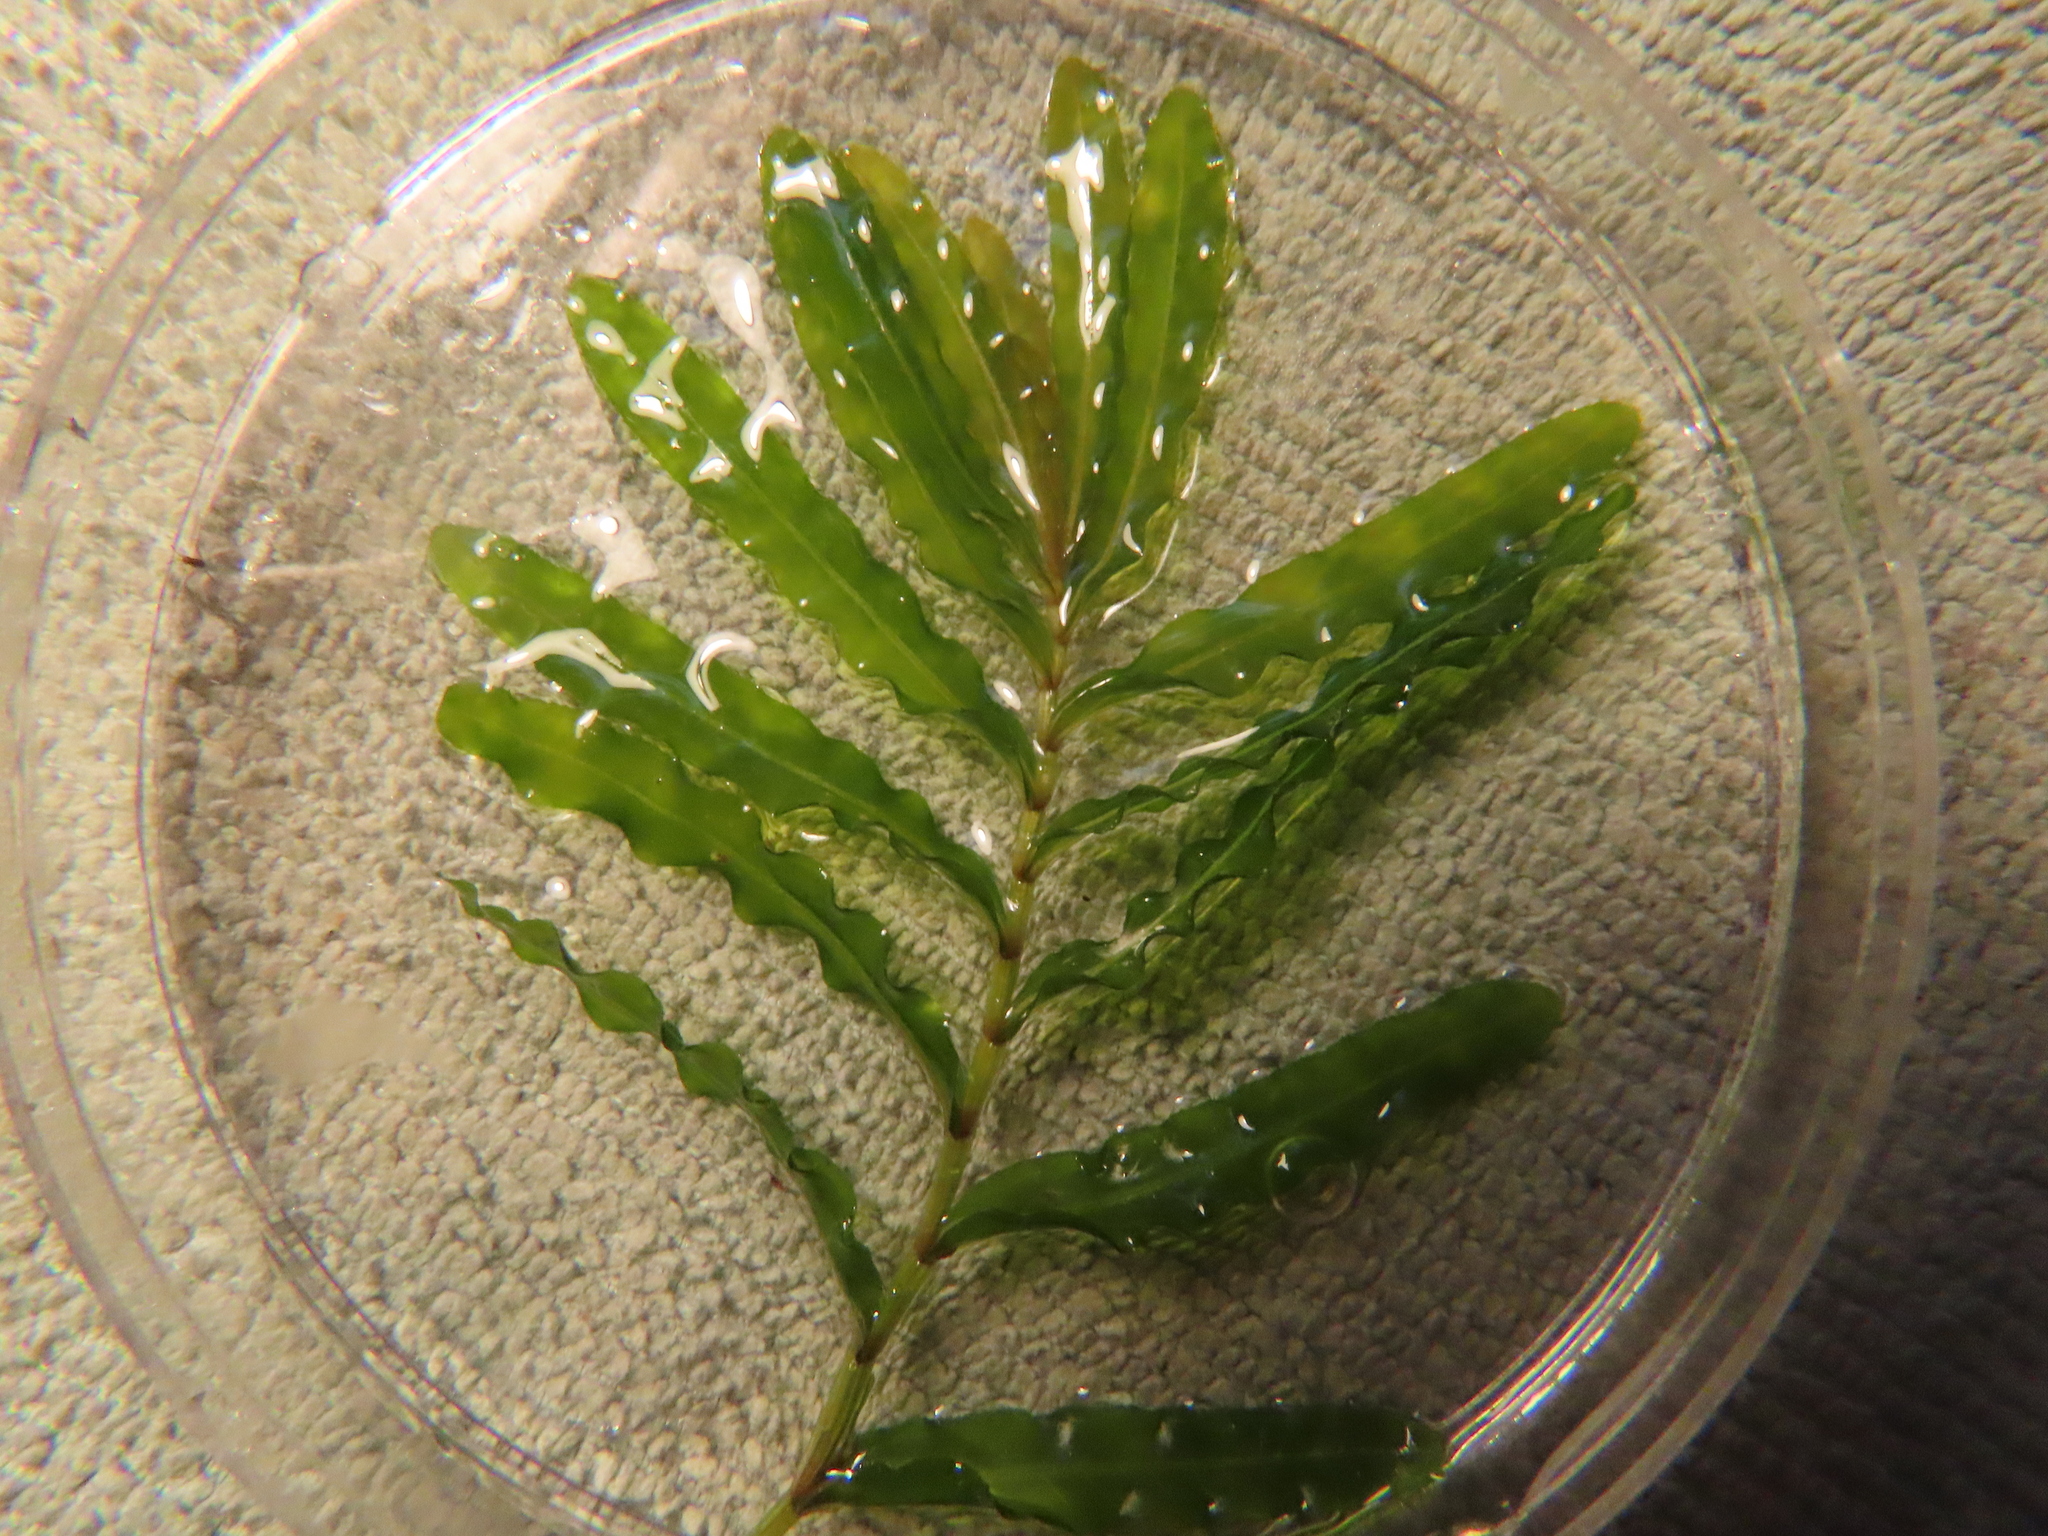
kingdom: Plantae
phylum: Tracheophyta
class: Liliopsida
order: Alismatales
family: Potamogetonaceae
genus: Potamogeton
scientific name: Potamogeton crispus
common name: Curled pondweed
